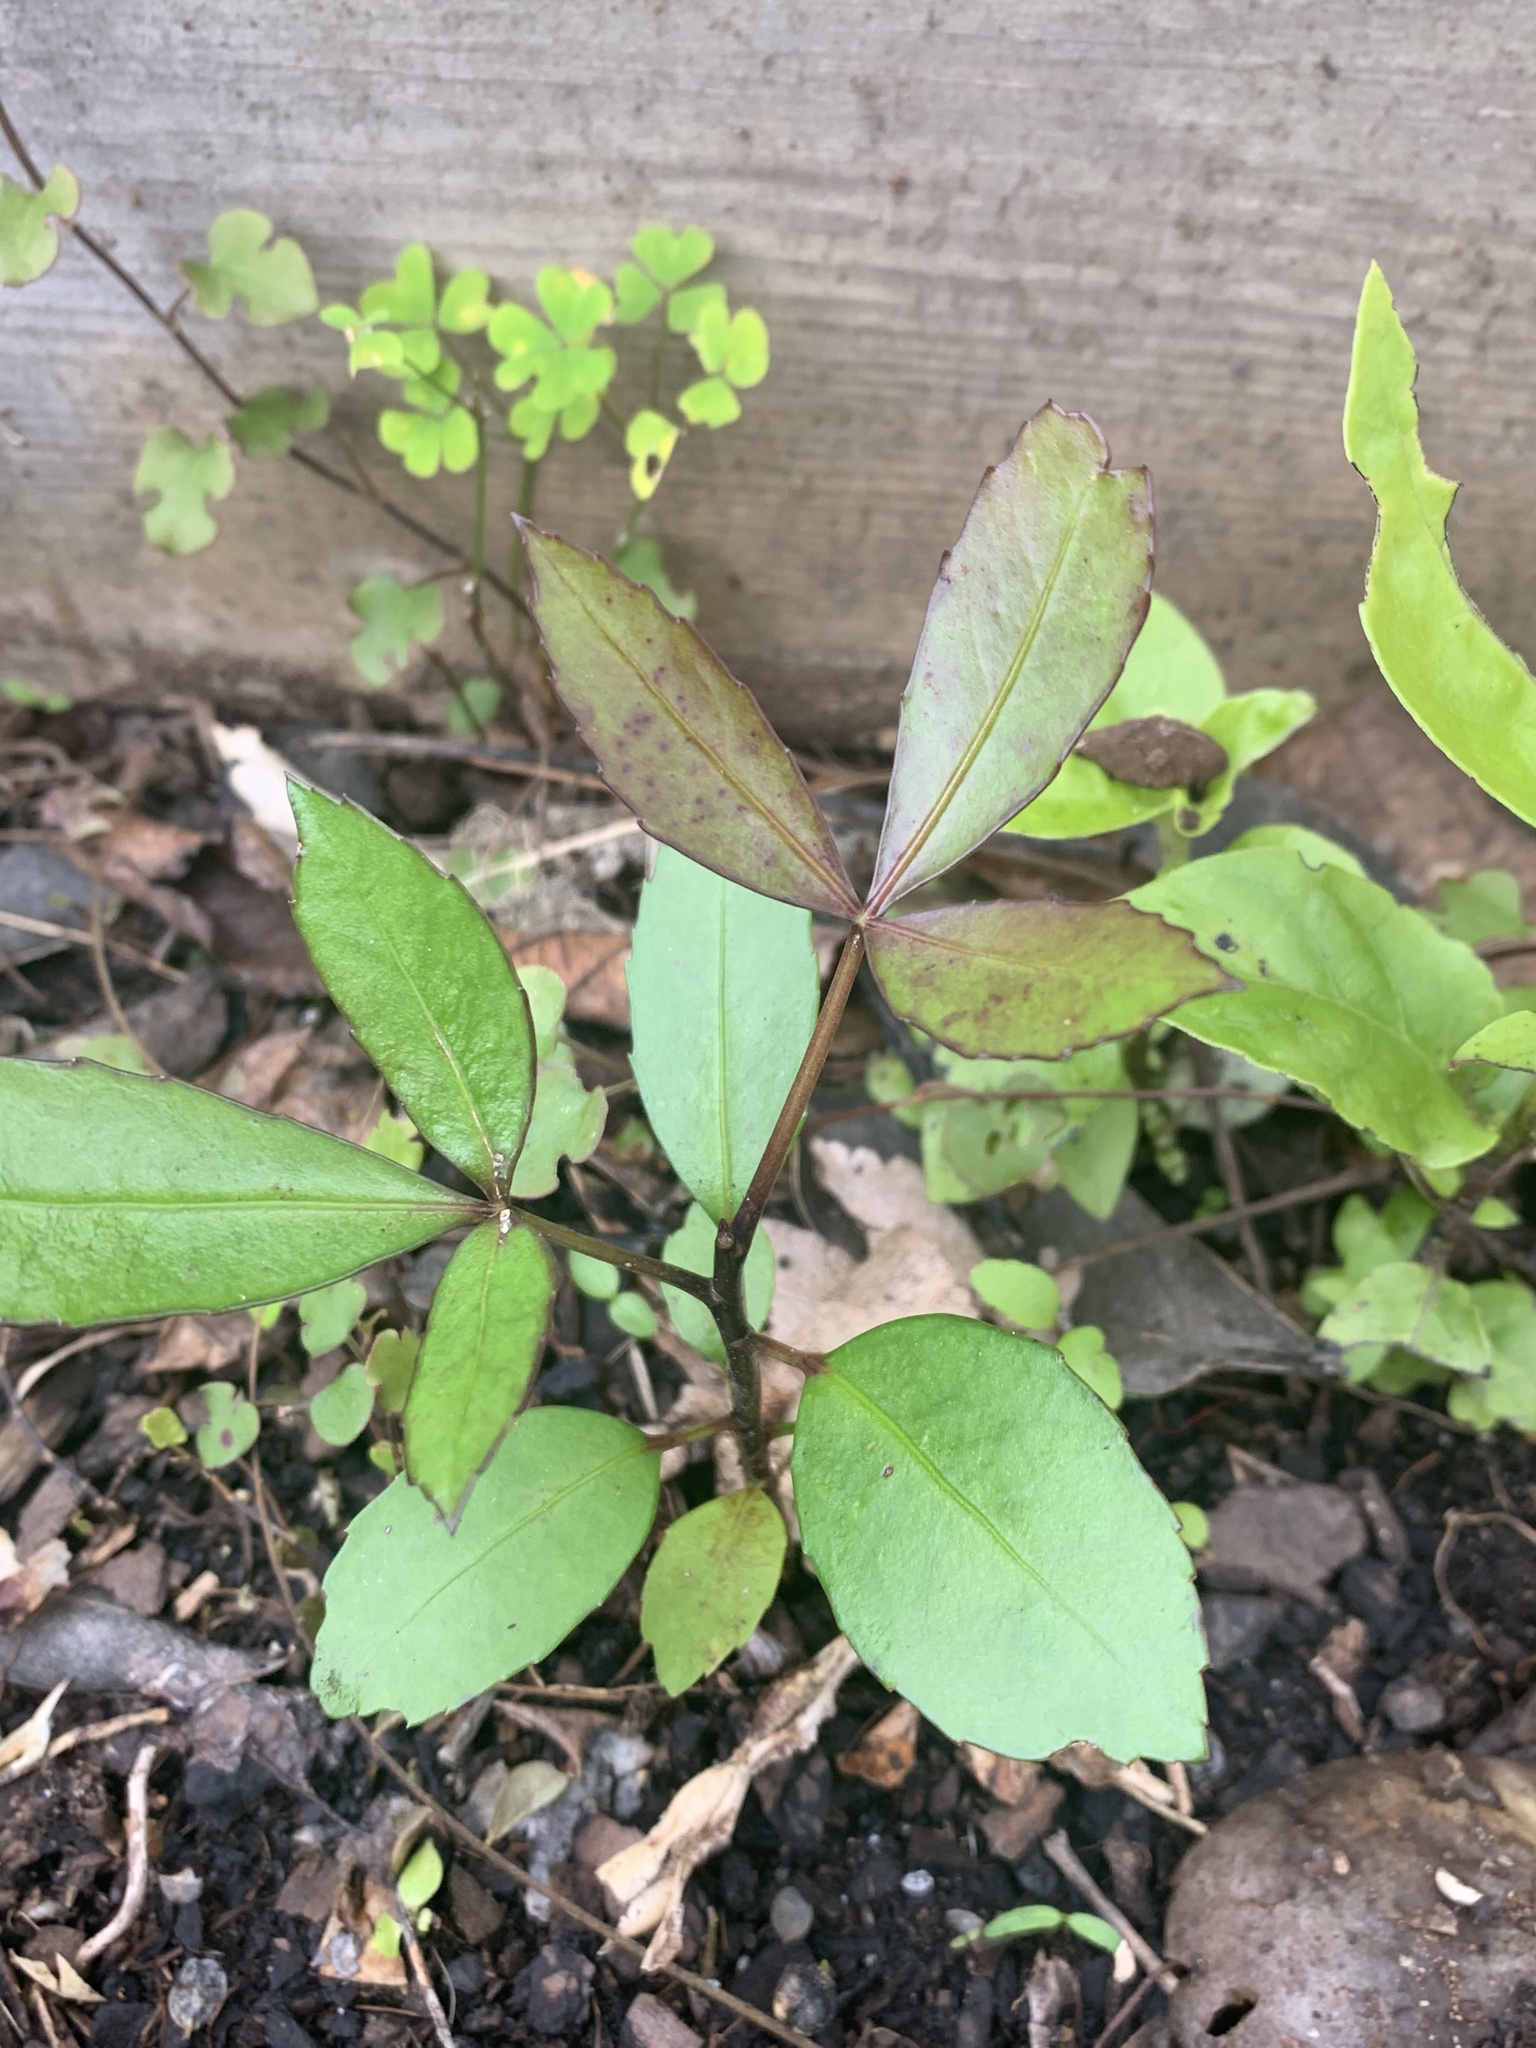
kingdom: Plantae
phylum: Tracheophyta
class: Magnoliopsida
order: Apiales
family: Araliaceae
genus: Pseudopanax
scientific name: Pseudopanax discolor
